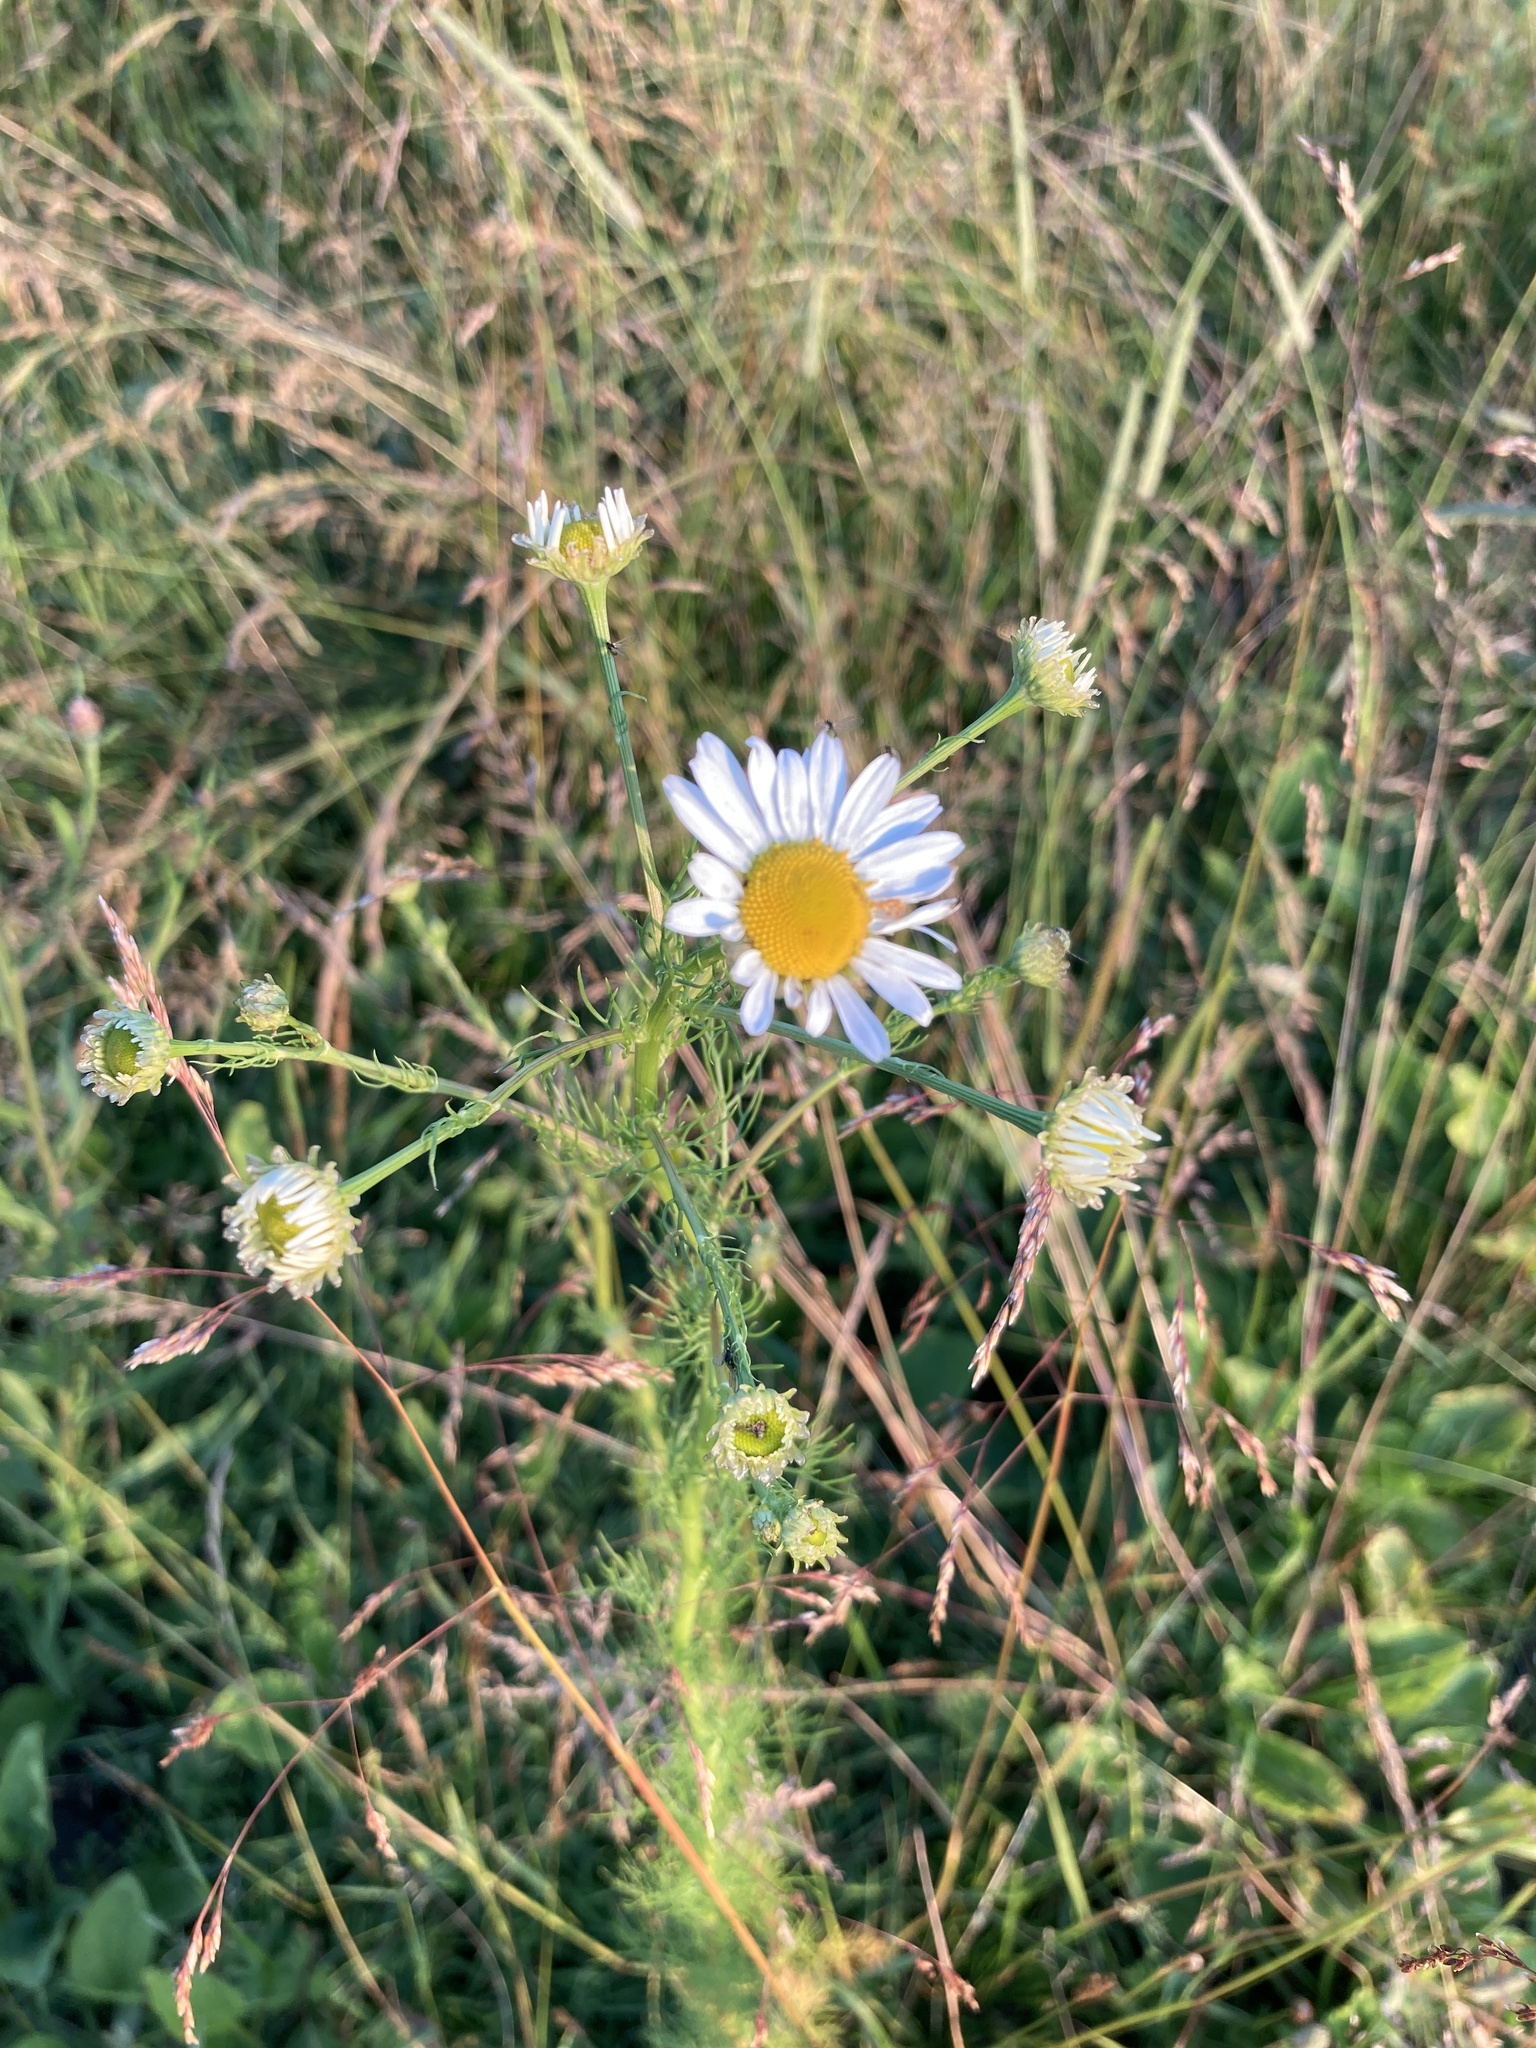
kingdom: Plantae
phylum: Tracheophyta
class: Magnoliopsida
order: Asterales
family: Asteraceae
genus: Tripleurospermum
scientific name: Tripleurospermum inodorum
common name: Scentless mayweed
